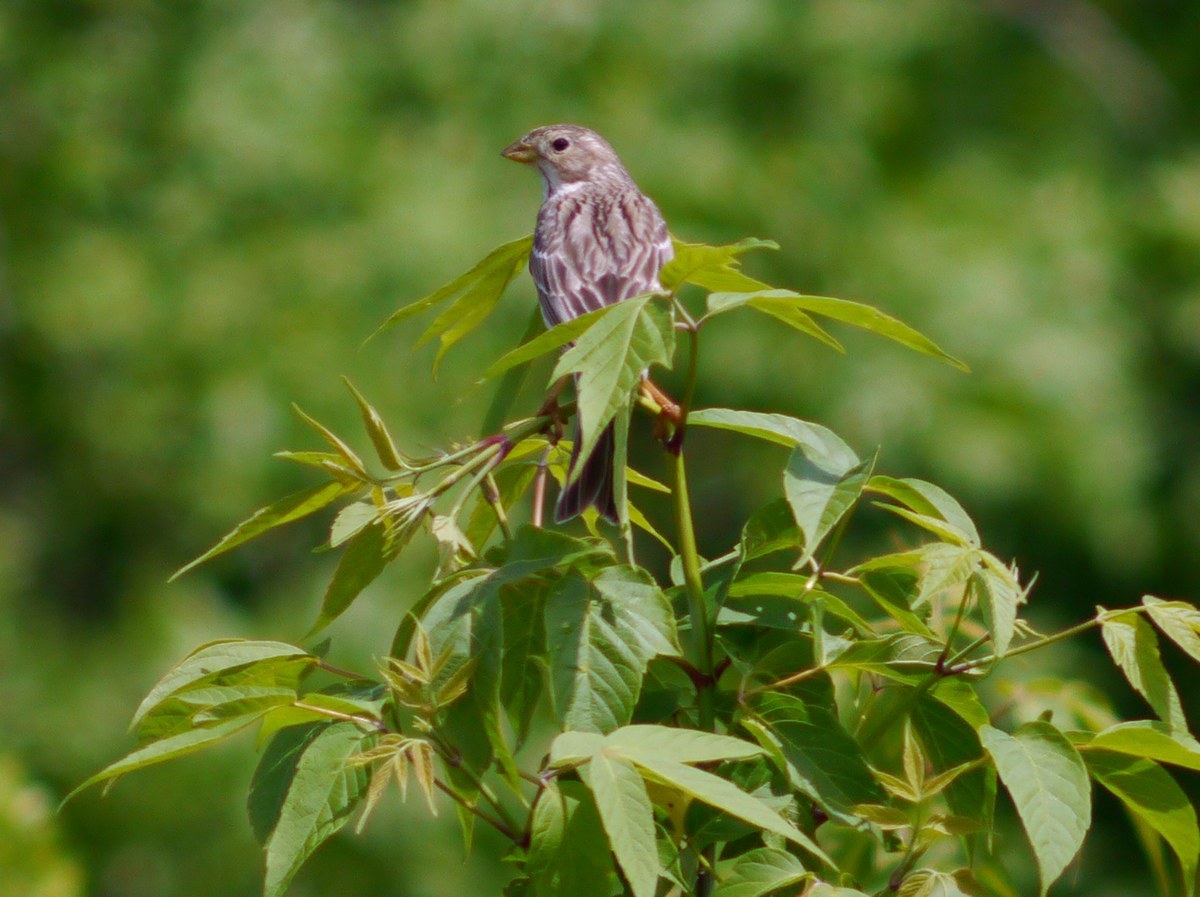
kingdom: Animalia
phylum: Chordata
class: Aves
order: Passeriformes
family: Emberizidae
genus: Emberiza
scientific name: Emberiza calandra
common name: Corn bunting
